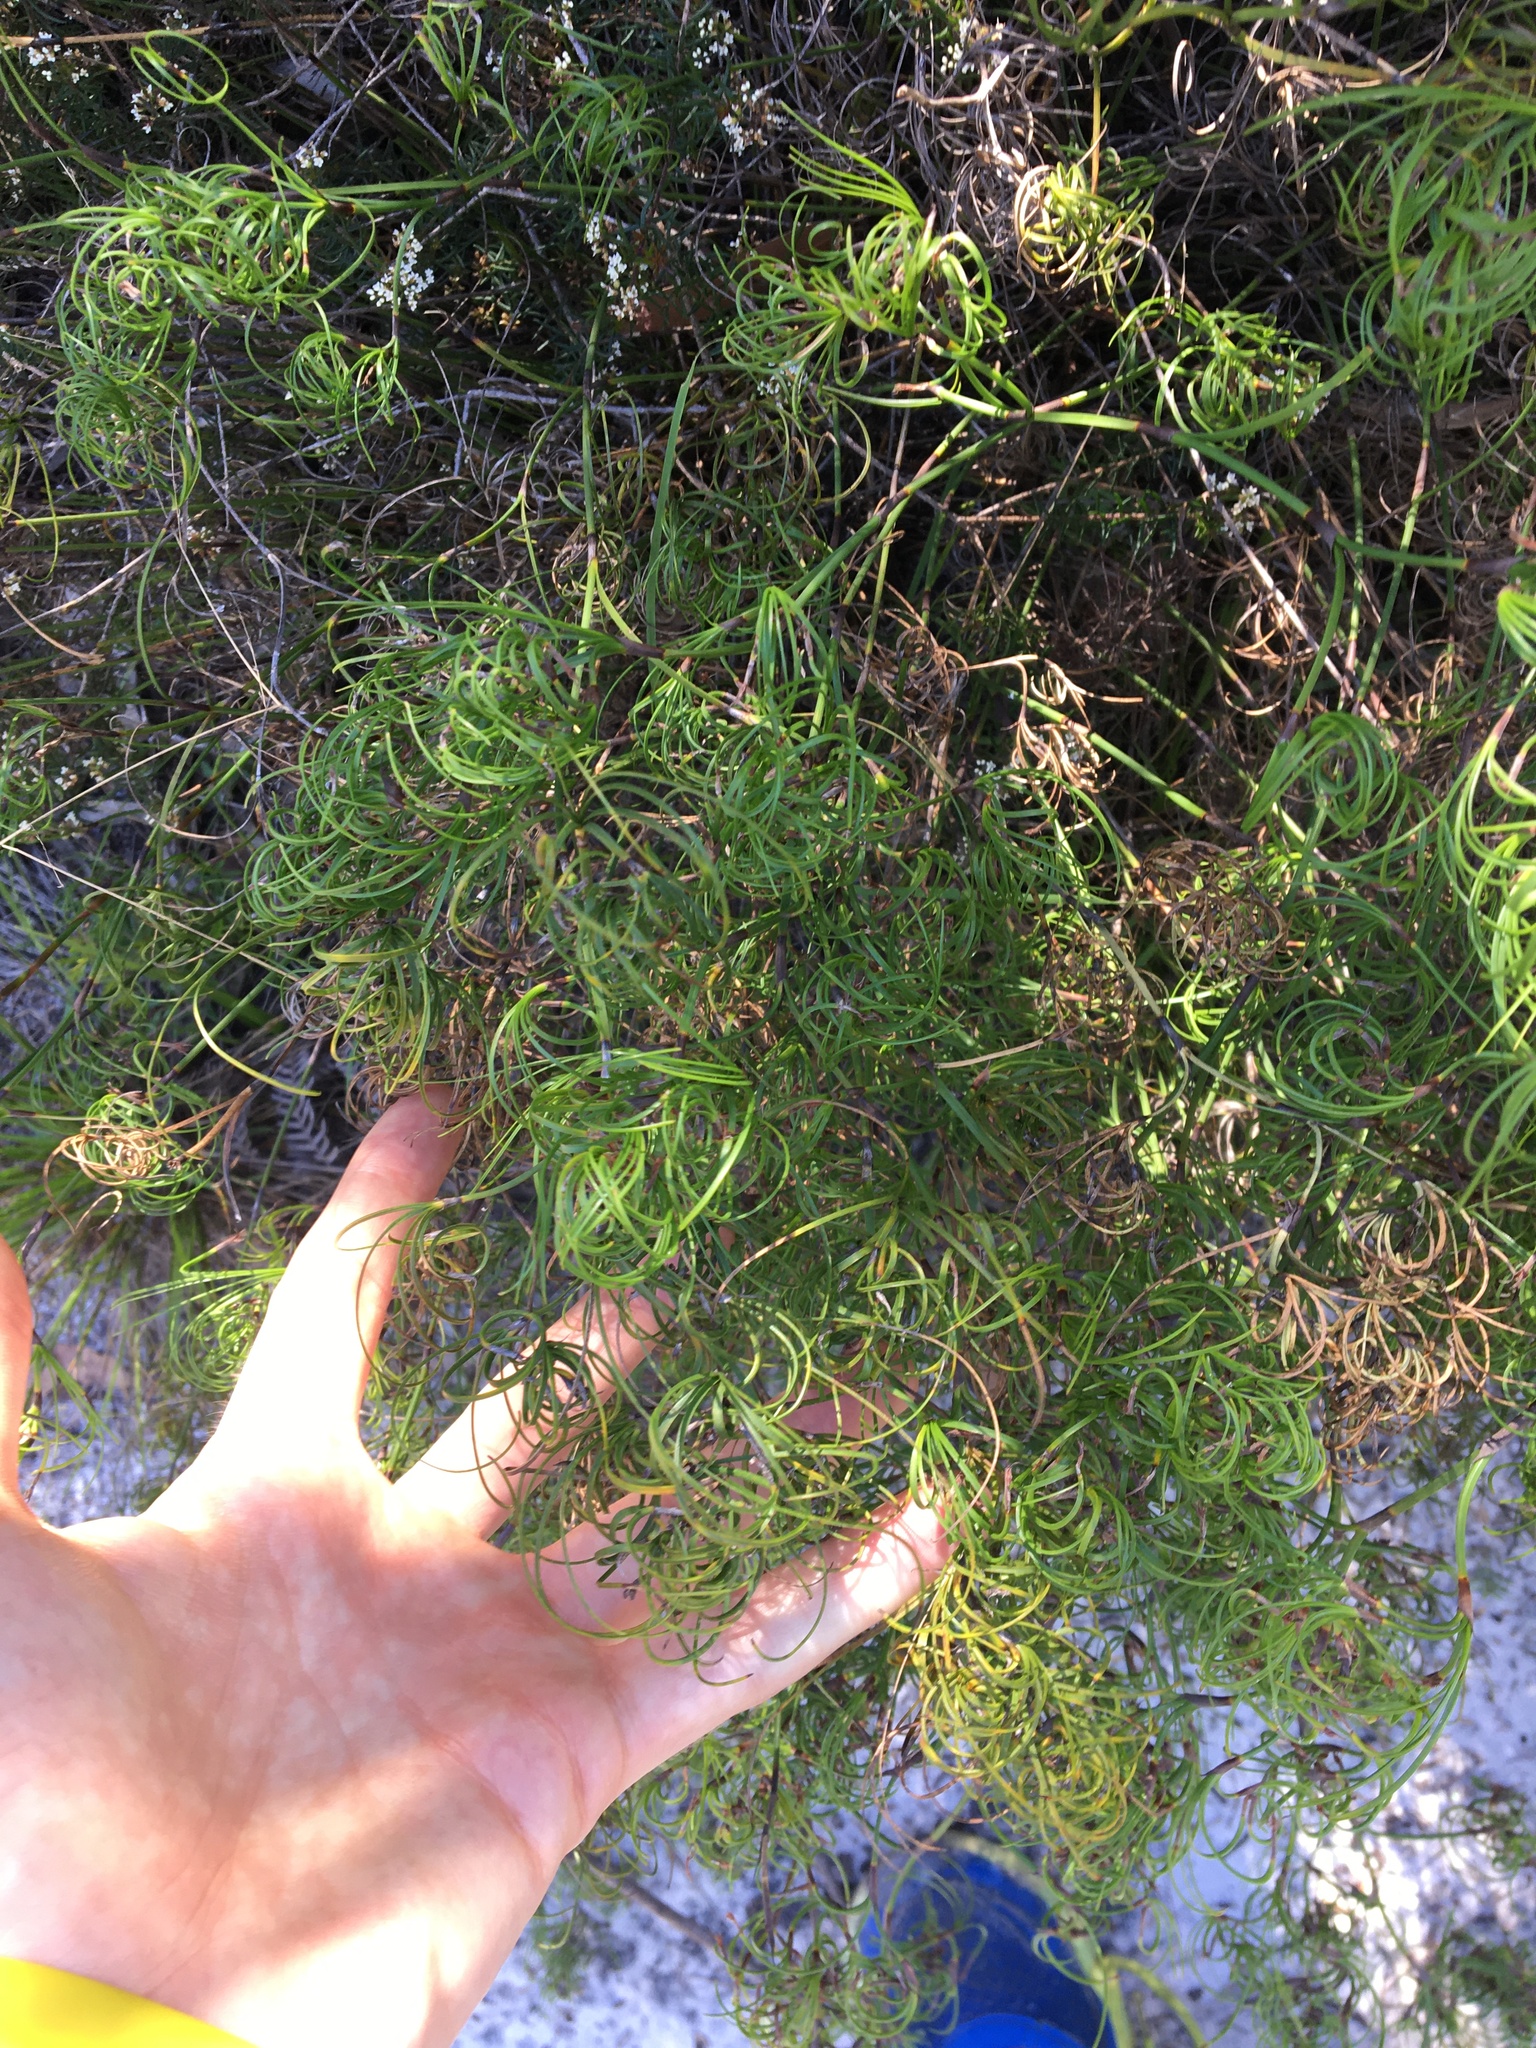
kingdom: Plantae
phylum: Tracheophyta
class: Liliopsida
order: Poales
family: Cyperaceae
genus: Caustis
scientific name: Caustis recurvata
